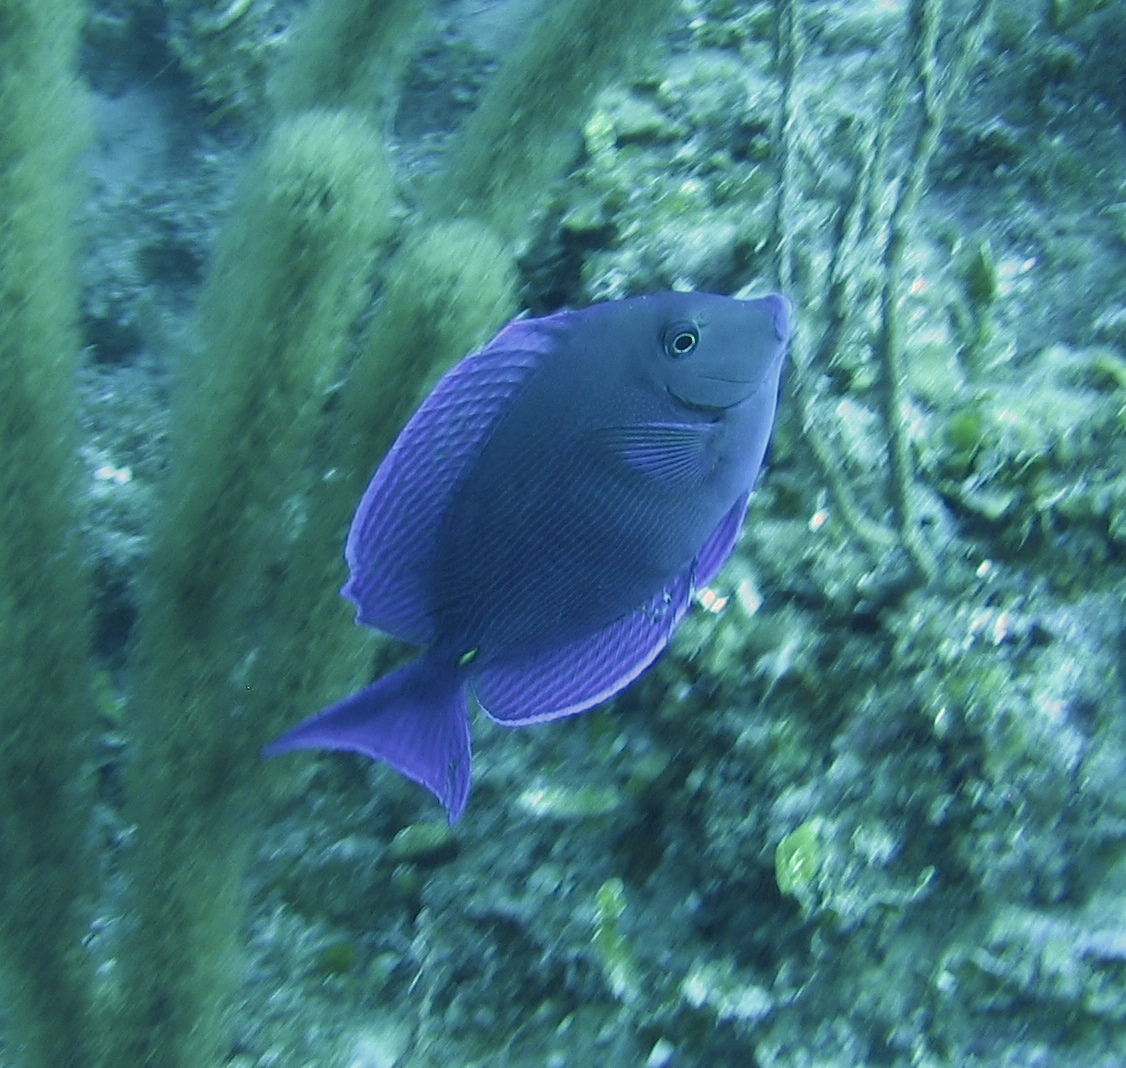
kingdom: Animalia
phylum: Chordata
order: Perciformes
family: Acanthuridae
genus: Acanthurus
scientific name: Acanthurus coeruleus
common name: Blue tang
